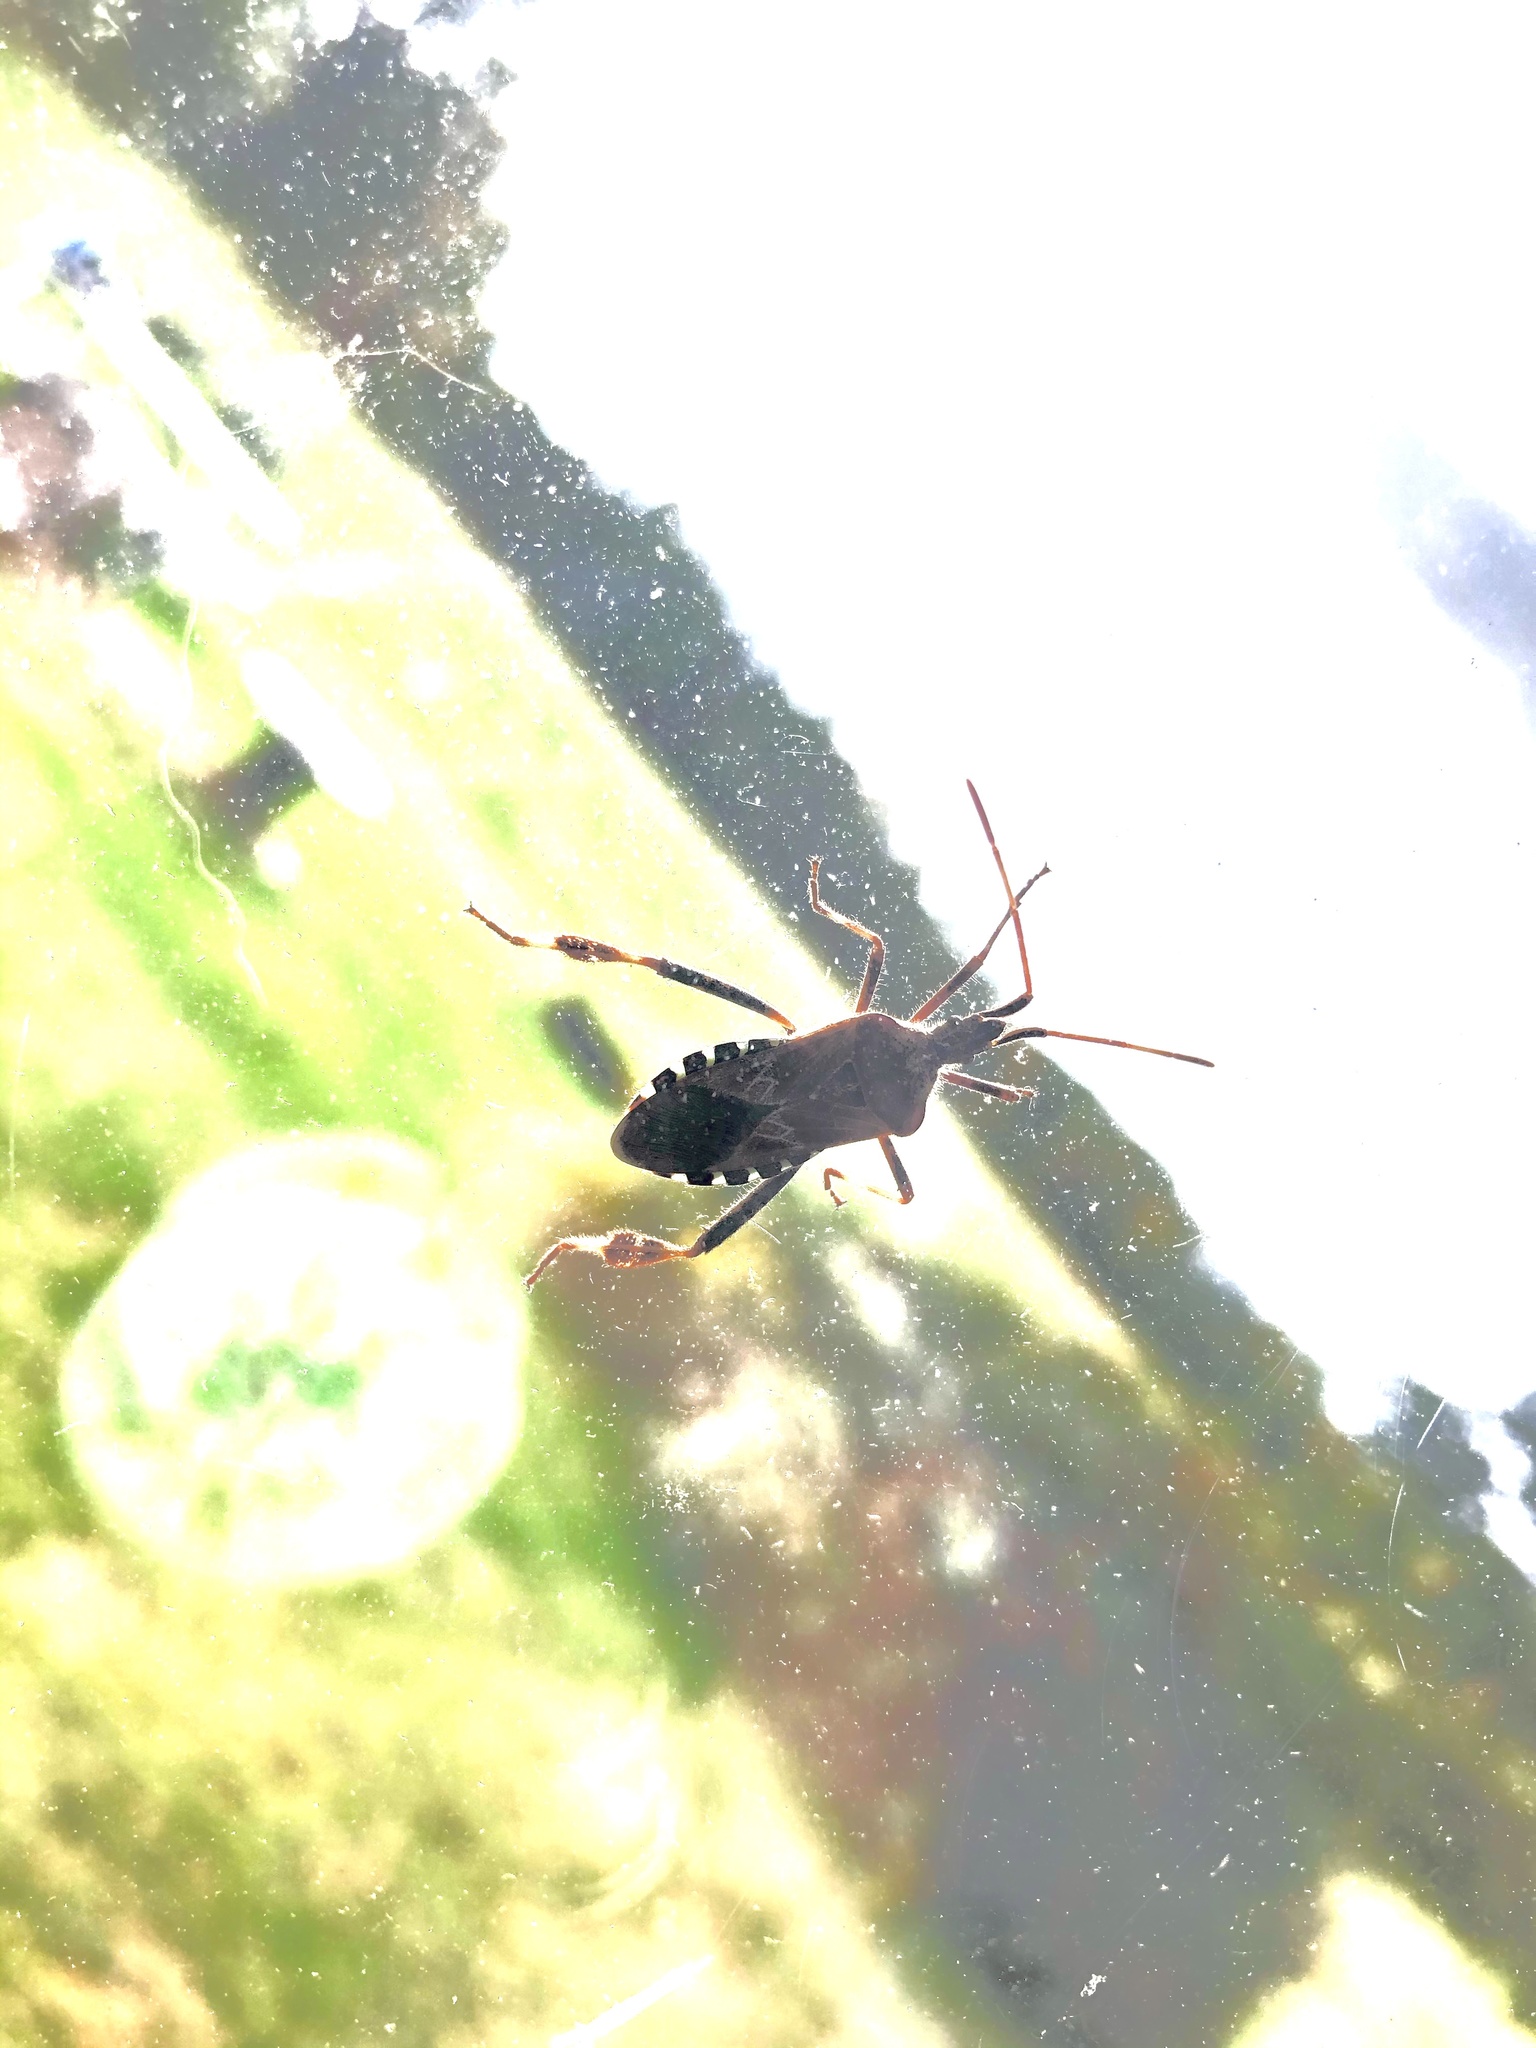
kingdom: Animalia
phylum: Arthropoda
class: Insecta
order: Hemiptera
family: Coreidae
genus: Leptoglossus
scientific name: Leptoglossus occidentalis
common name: Western conifer-seed bug
